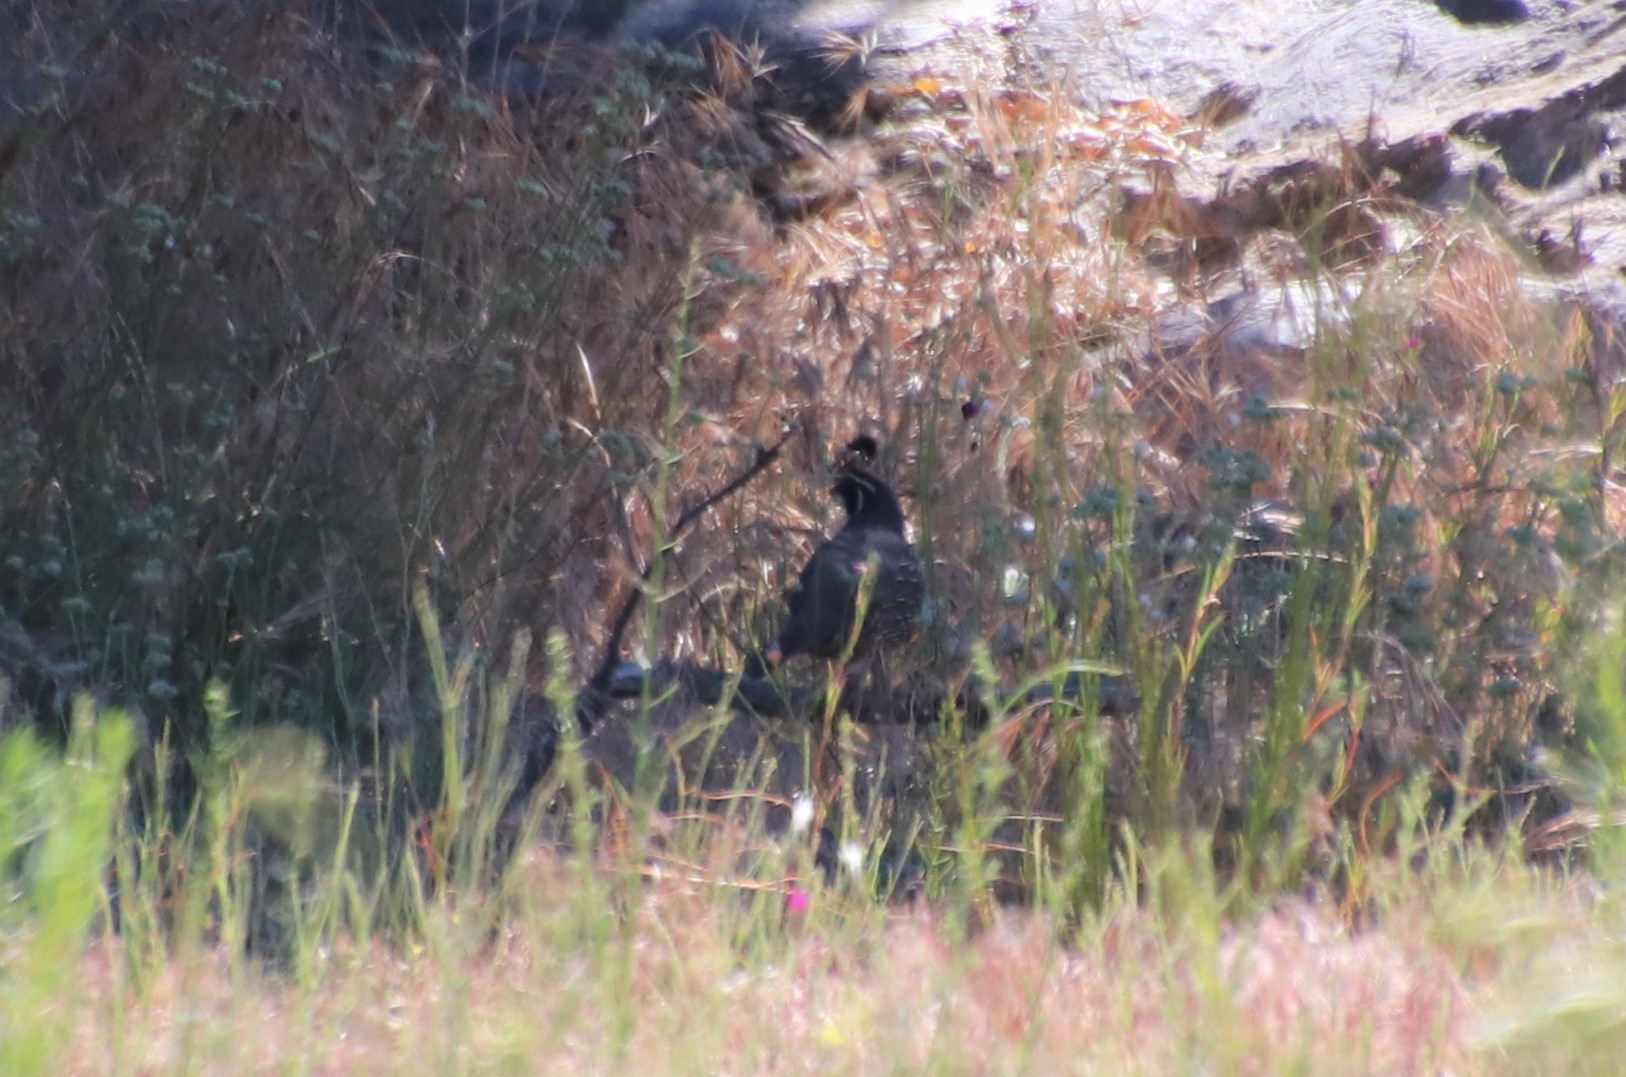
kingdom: Animalia
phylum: Chordata
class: Aves
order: Galliformes
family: Odontophoridae
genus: Callipepla
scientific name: Callipepla californica
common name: California quail
